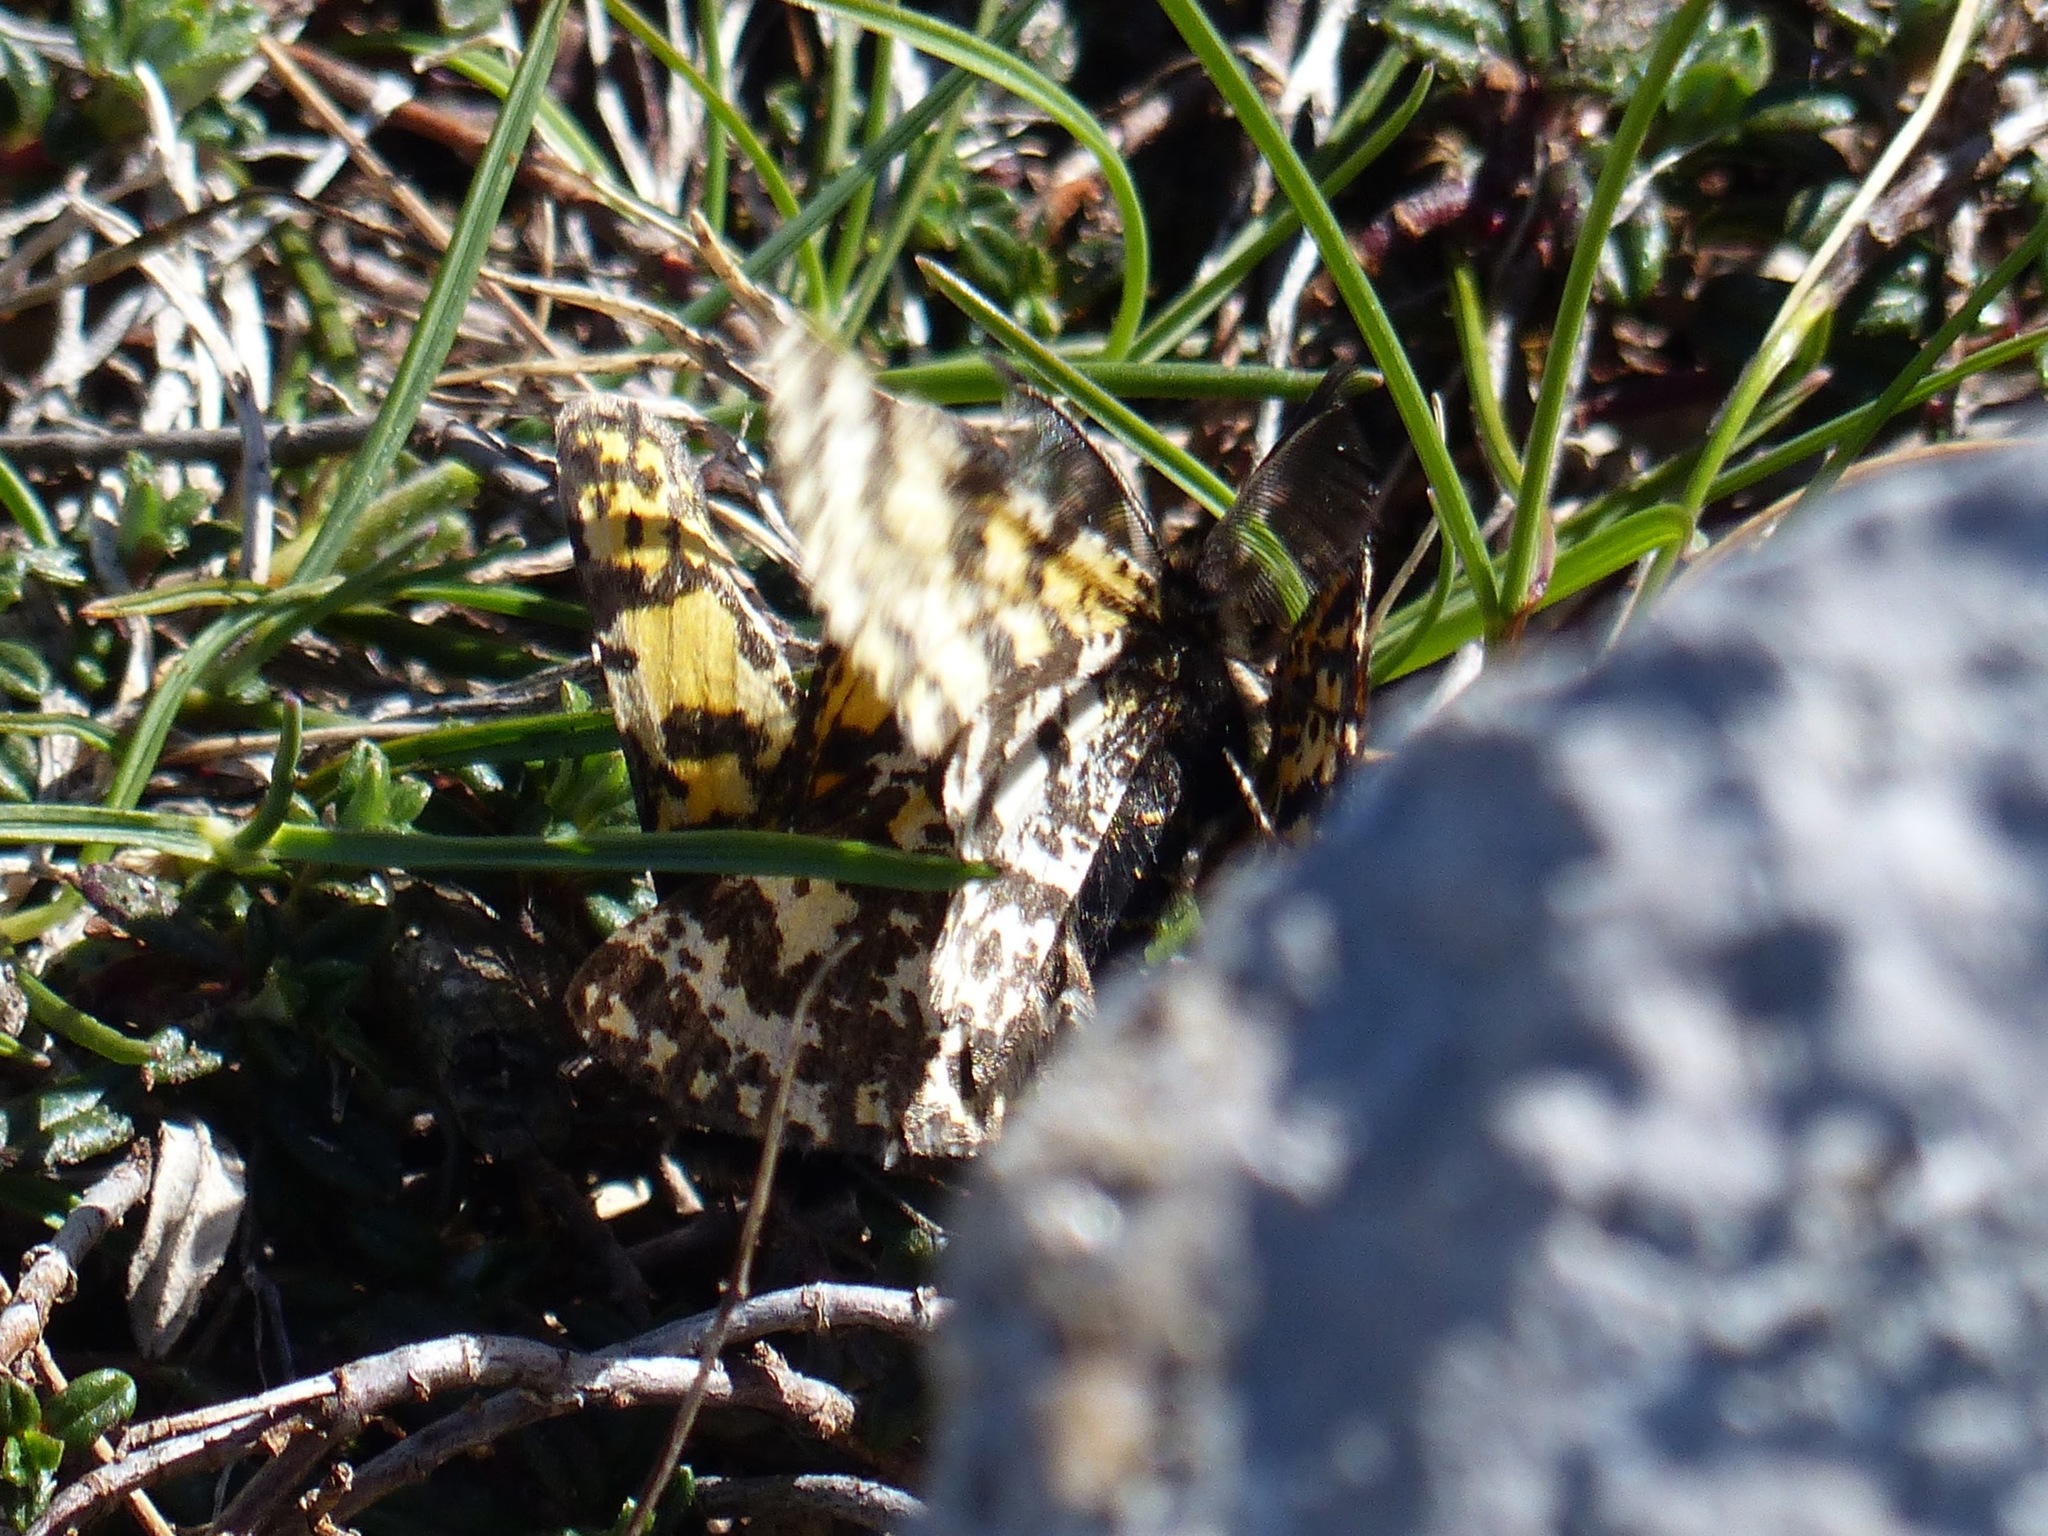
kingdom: Animalia
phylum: Arthropoda
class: Insecta
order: Lepidoptera
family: Geometridae
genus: Eurranthis
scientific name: Eurranthis plummistaria
